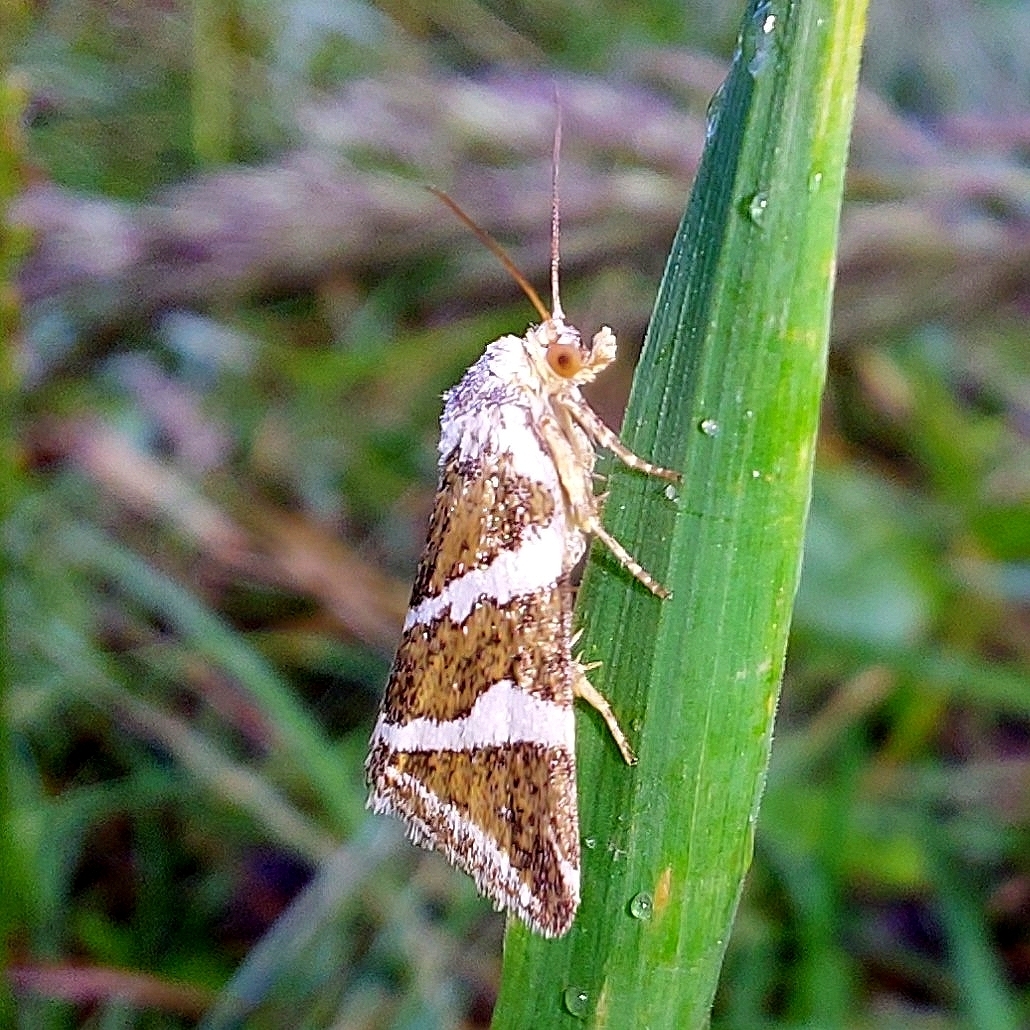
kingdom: Animalia
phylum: Arthropoda
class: Insecta
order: Lepidoptera
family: Noctuidae
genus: Deltote
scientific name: Deltote bankiana
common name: Silver barred
